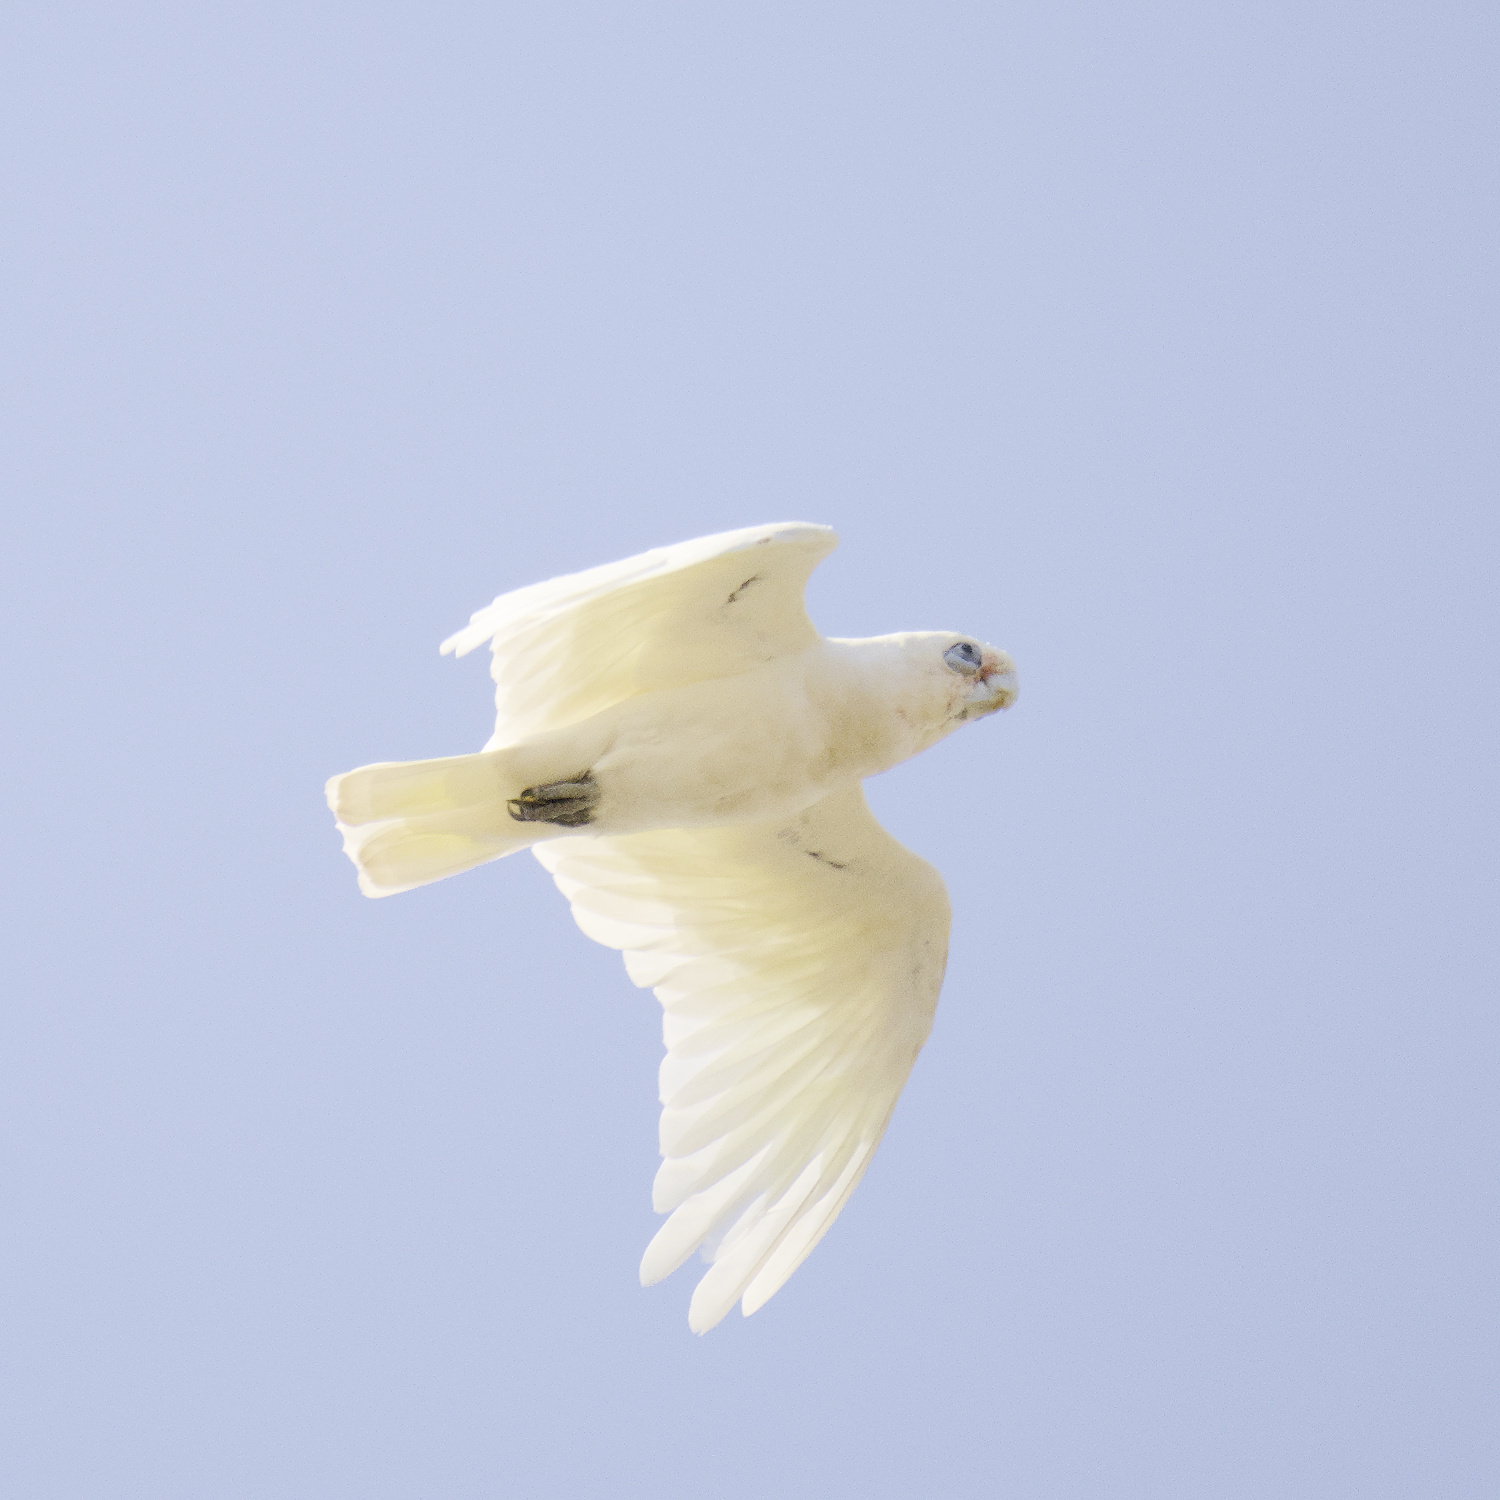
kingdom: Animalia
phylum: Chordata
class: Aves
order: Psittaciformes
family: Psittacidae
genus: Cacatua
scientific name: Cacatua sanguinea
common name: Little corella
